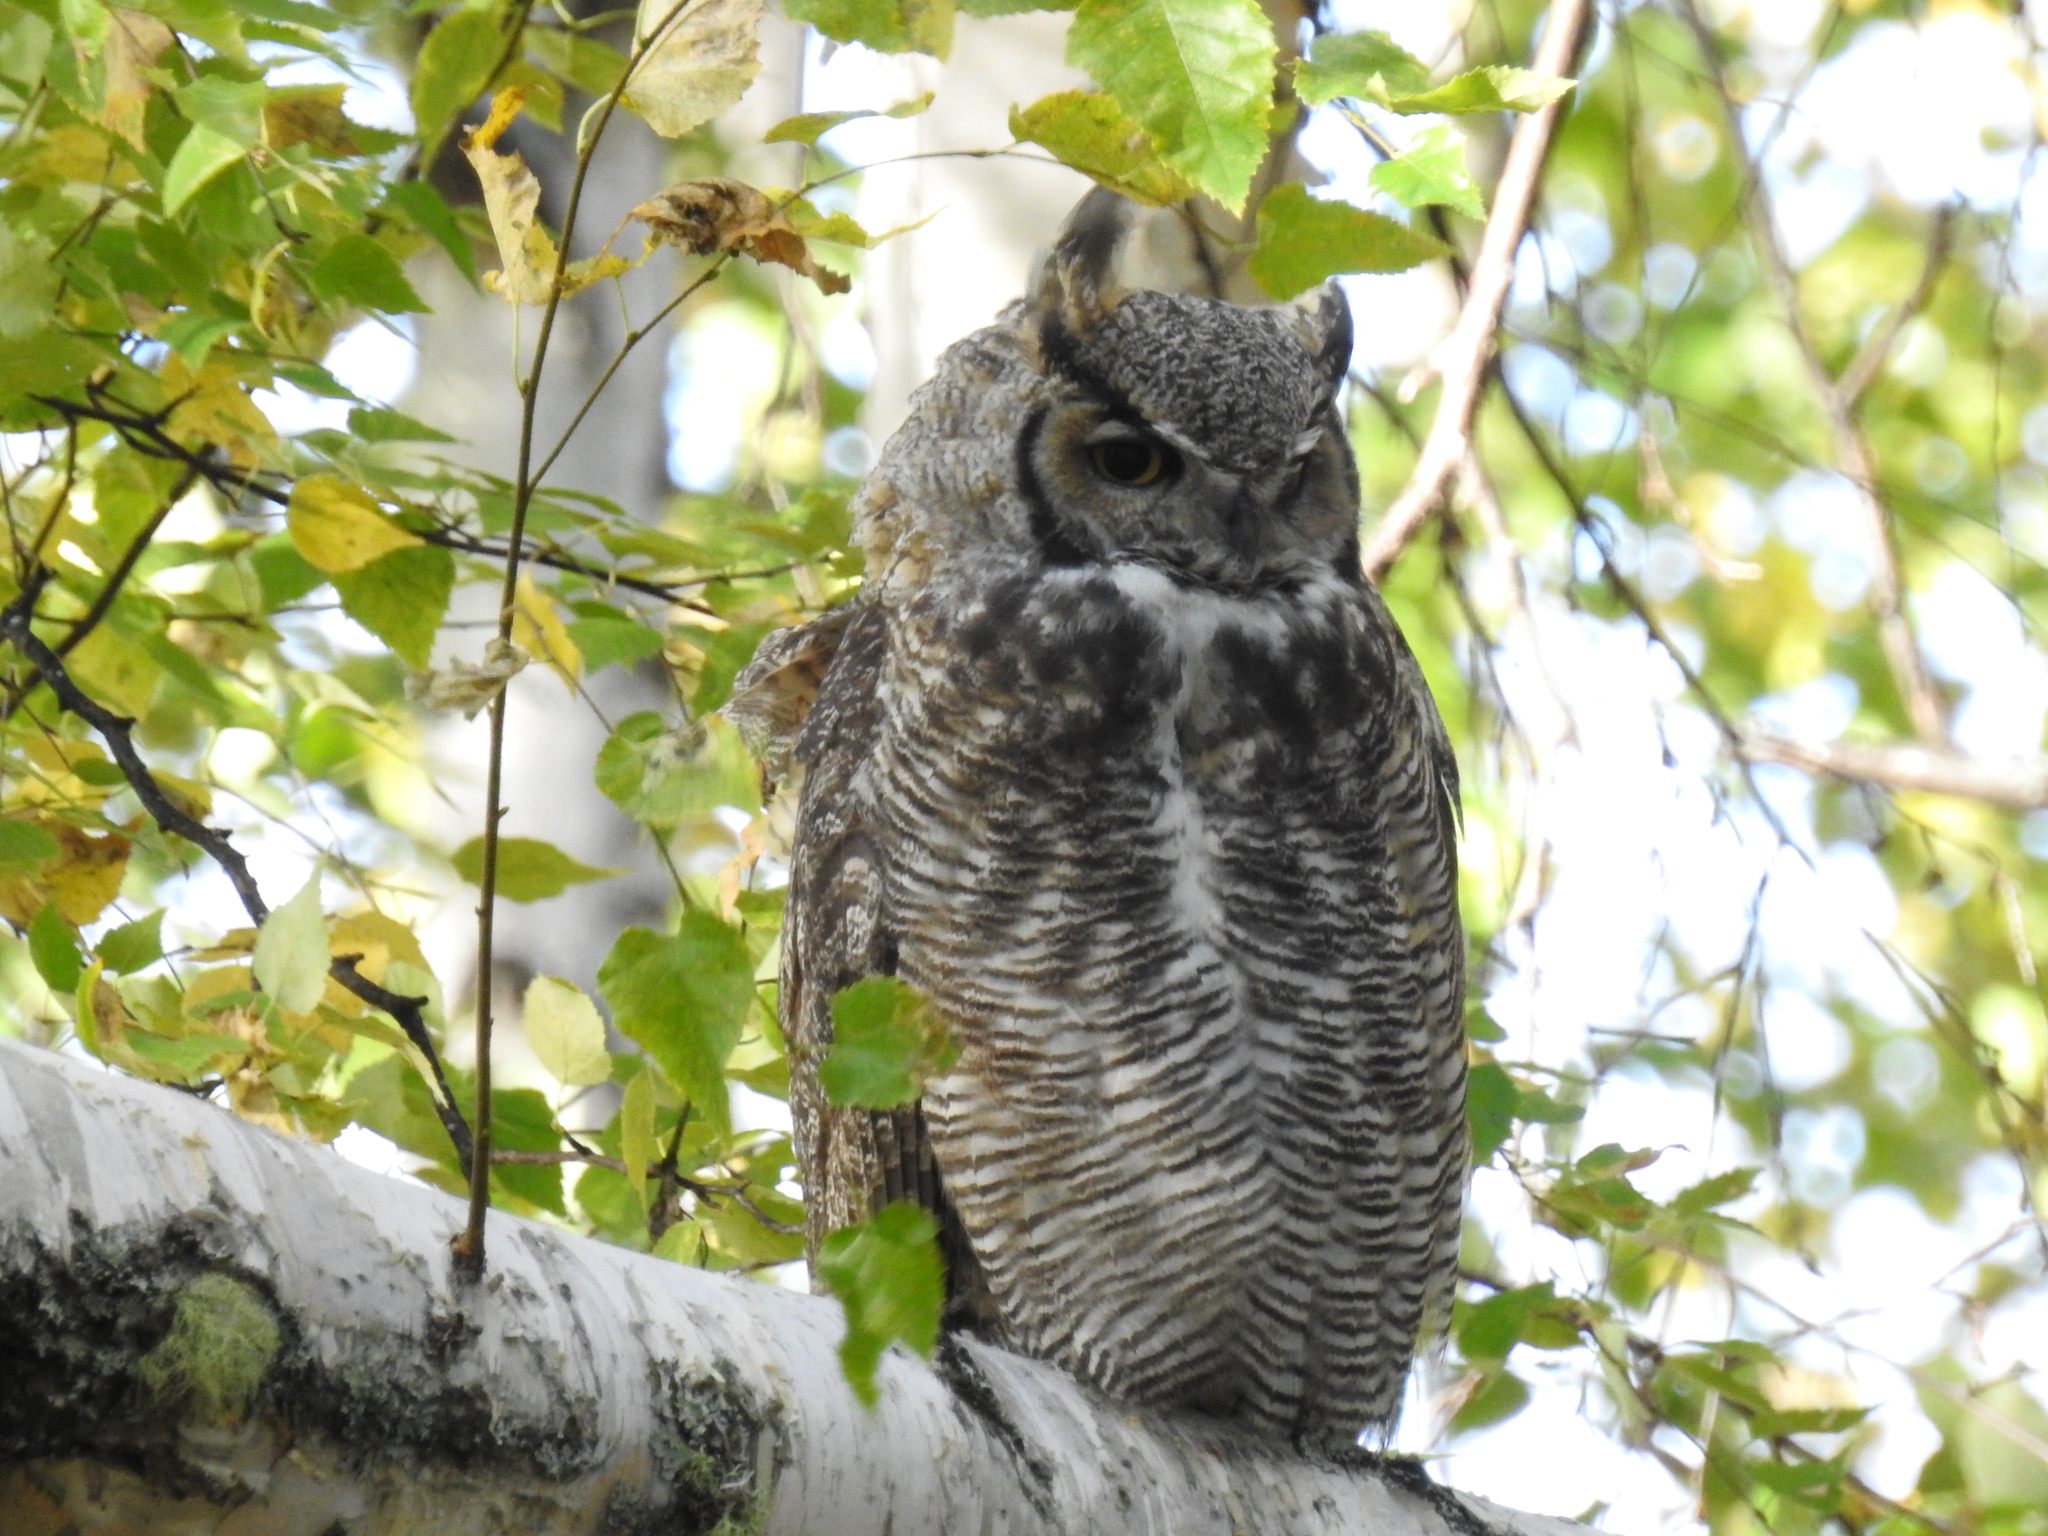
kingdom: Animalia
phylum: Chordata
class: Aves
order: Strigiformes
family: Strigidae
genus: Bubo
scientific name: Bubo virginianus
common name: Great horned owl
